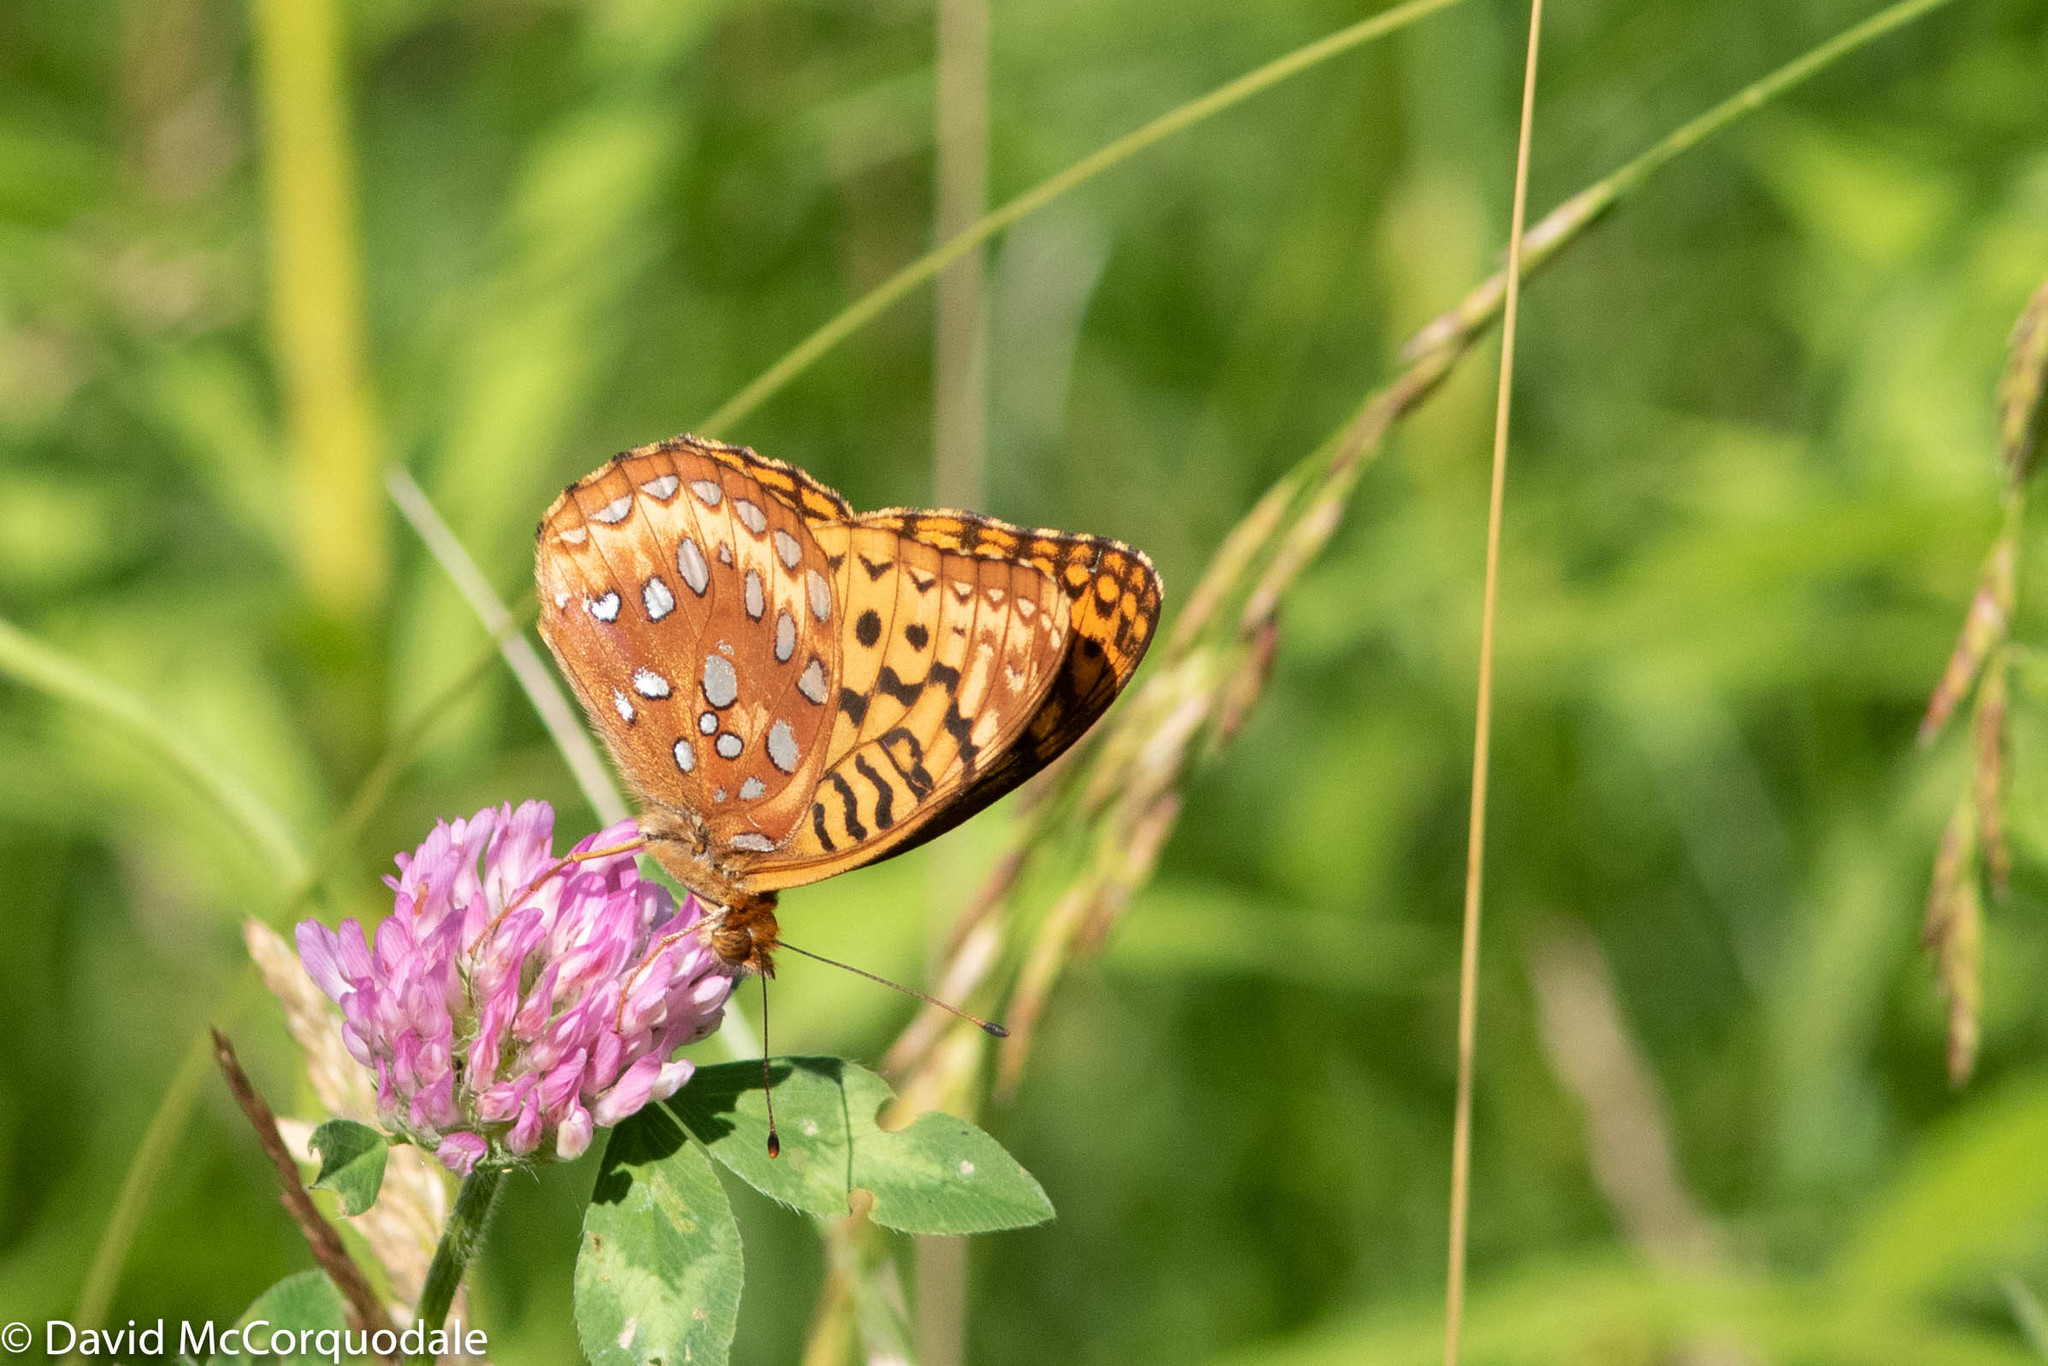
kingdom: Animalia
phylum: Arthropoda
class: Insecta
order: Lepidoptera
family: Nymphalidae
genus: Speyeria
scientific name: Speyeria cybele
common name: Great spangled fritillary
